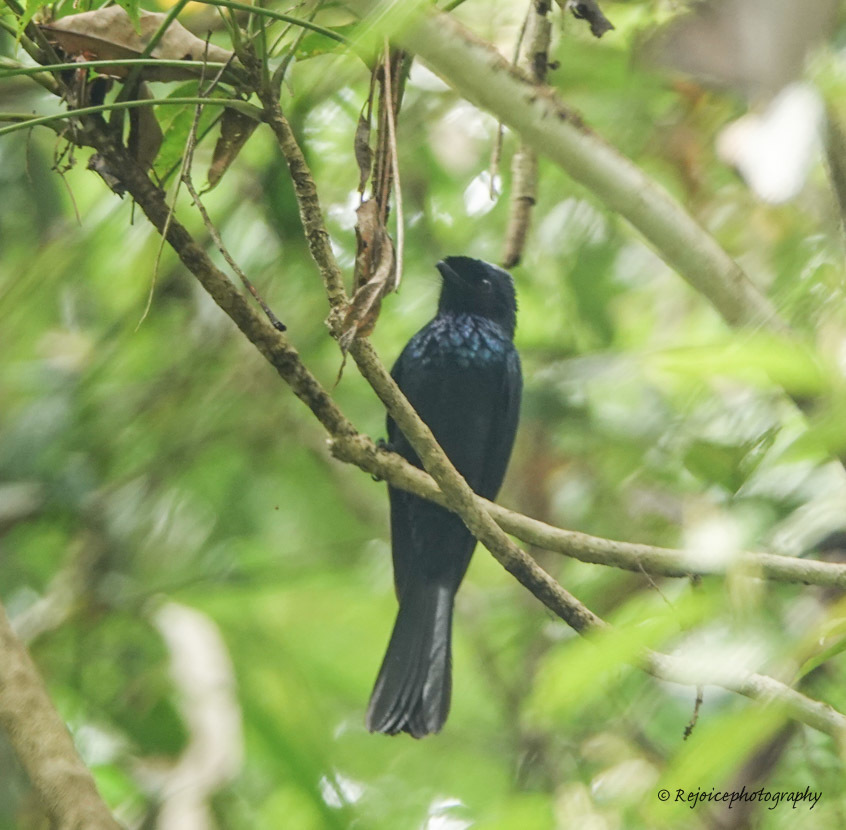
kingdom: Animalia
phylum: Chordata
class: Aves
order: Passeriformes
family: Dicruridae
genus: Dicrurus
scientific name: Dicrurus remifer
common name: Lesser racket-tailed drongo
